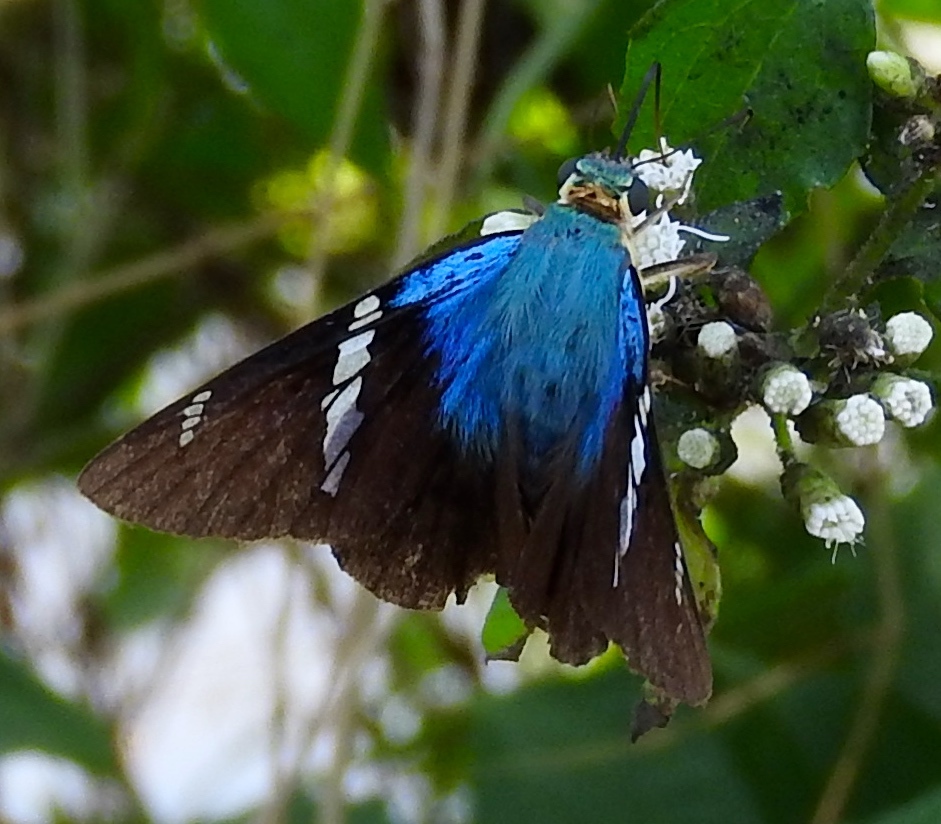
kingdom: Animalia
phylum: Arthropoda
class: Insecta
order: Lepidoptera
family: Hesperiidae
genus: Astraptes
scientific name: Astraptes fulgerator
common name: Two-barred flasher
